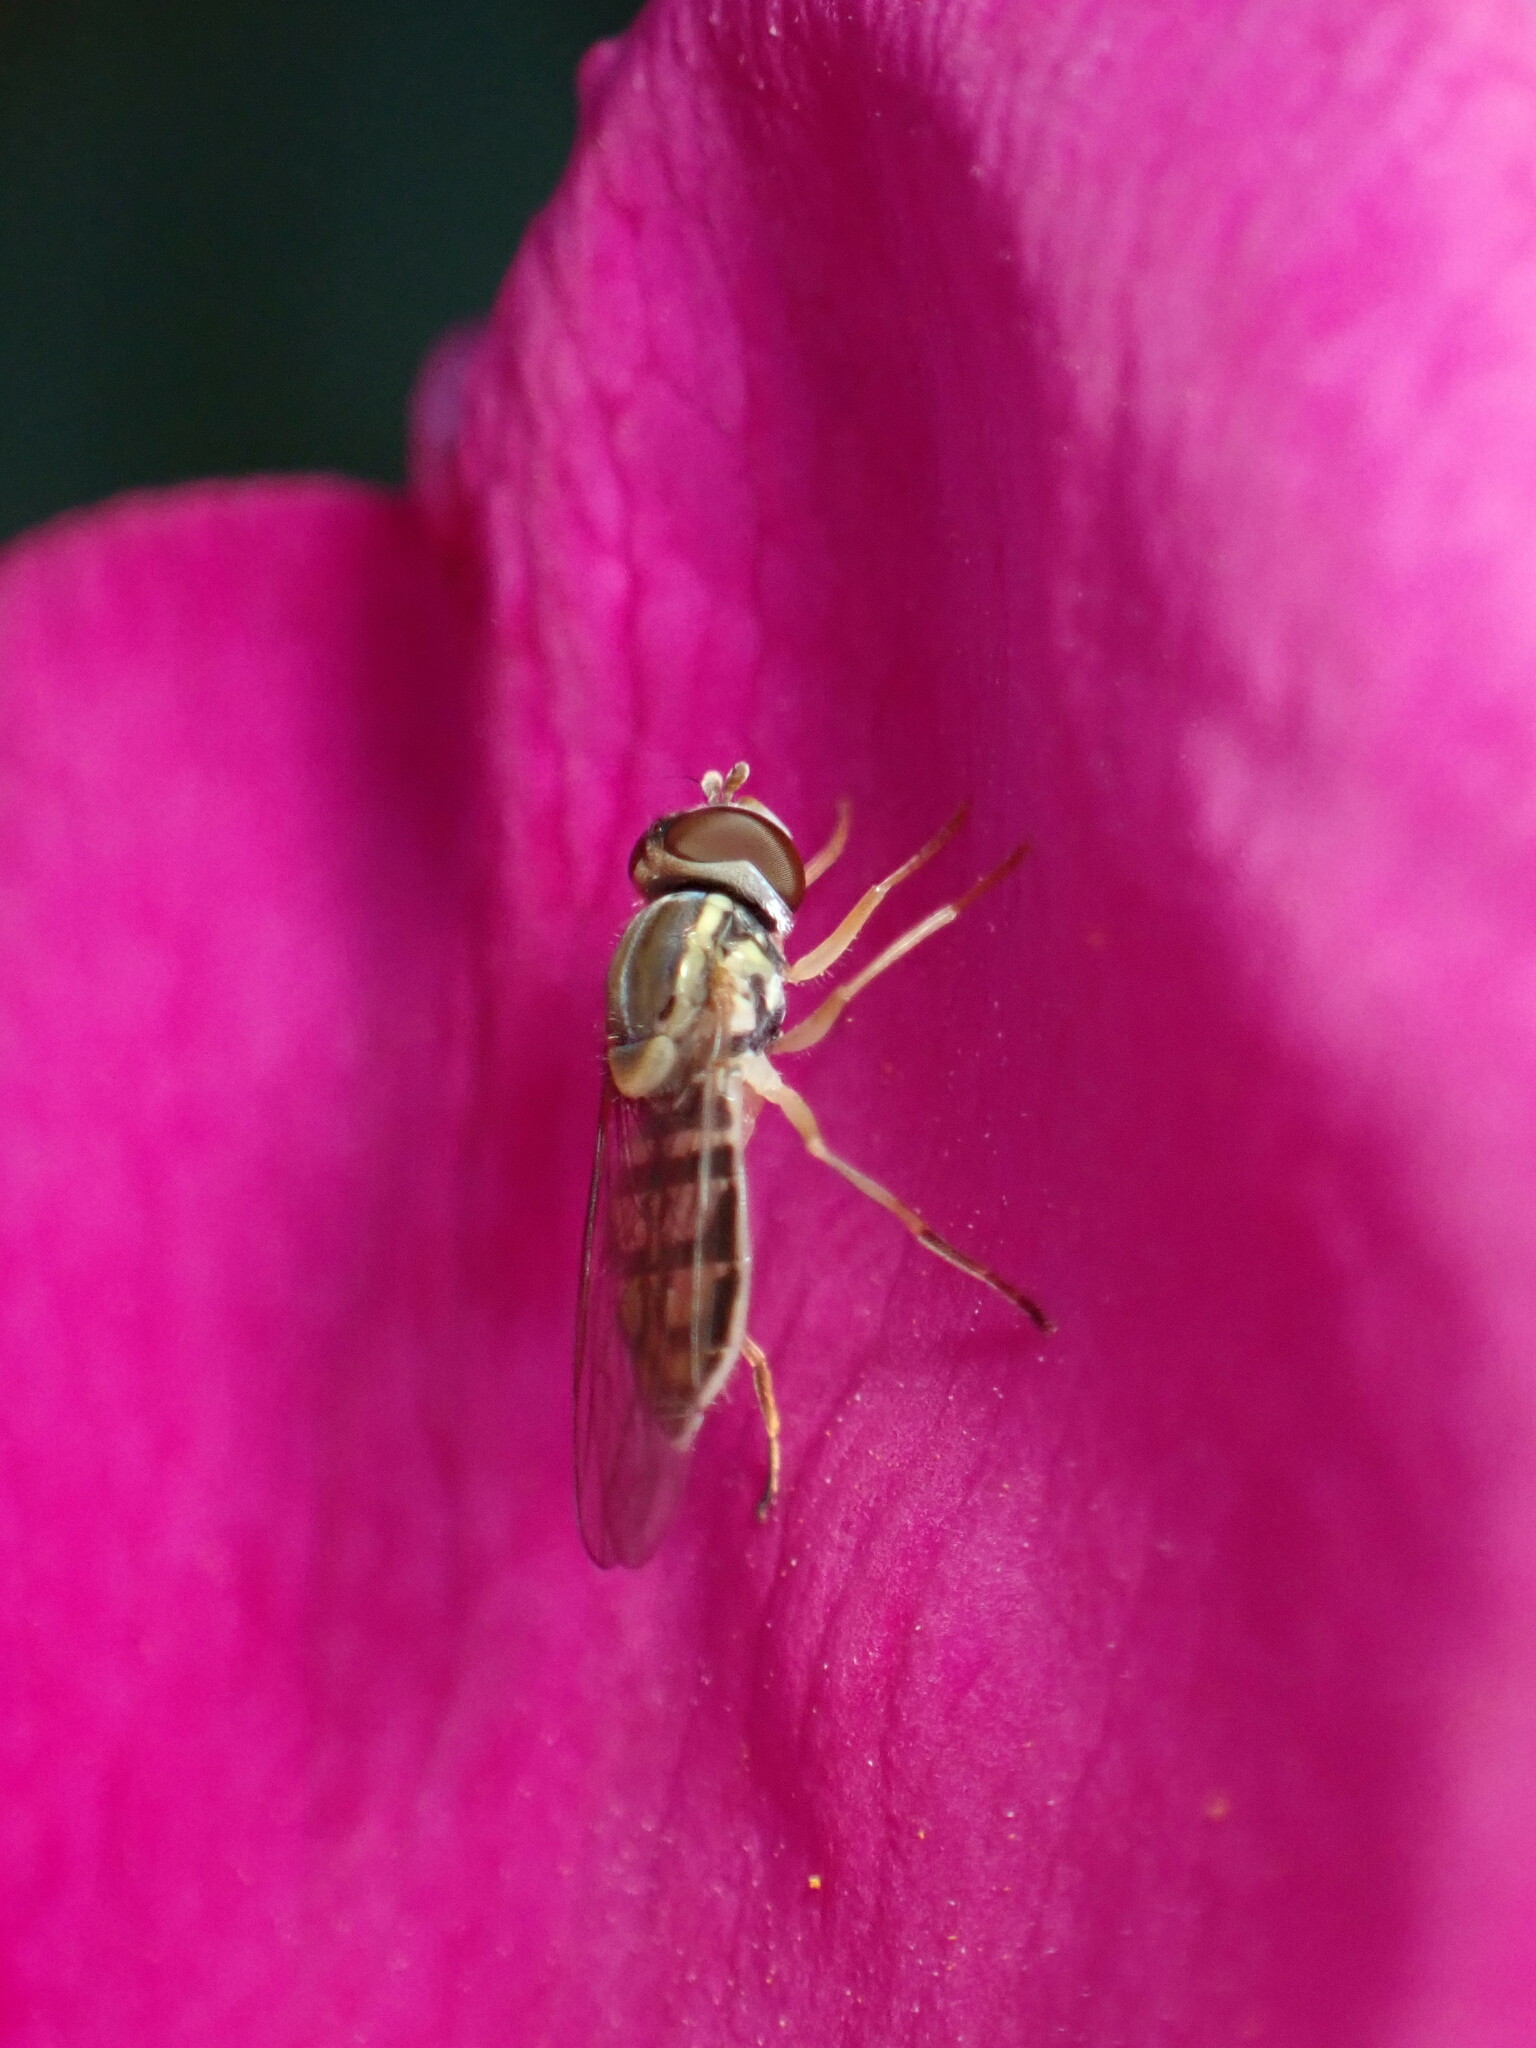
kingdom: Animalia
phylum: Arthropoda
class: Insecta
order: Diptera
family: Syrphidae
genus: Toxomerus
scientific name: Toxomerus marginatus
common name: Syrphid fly
